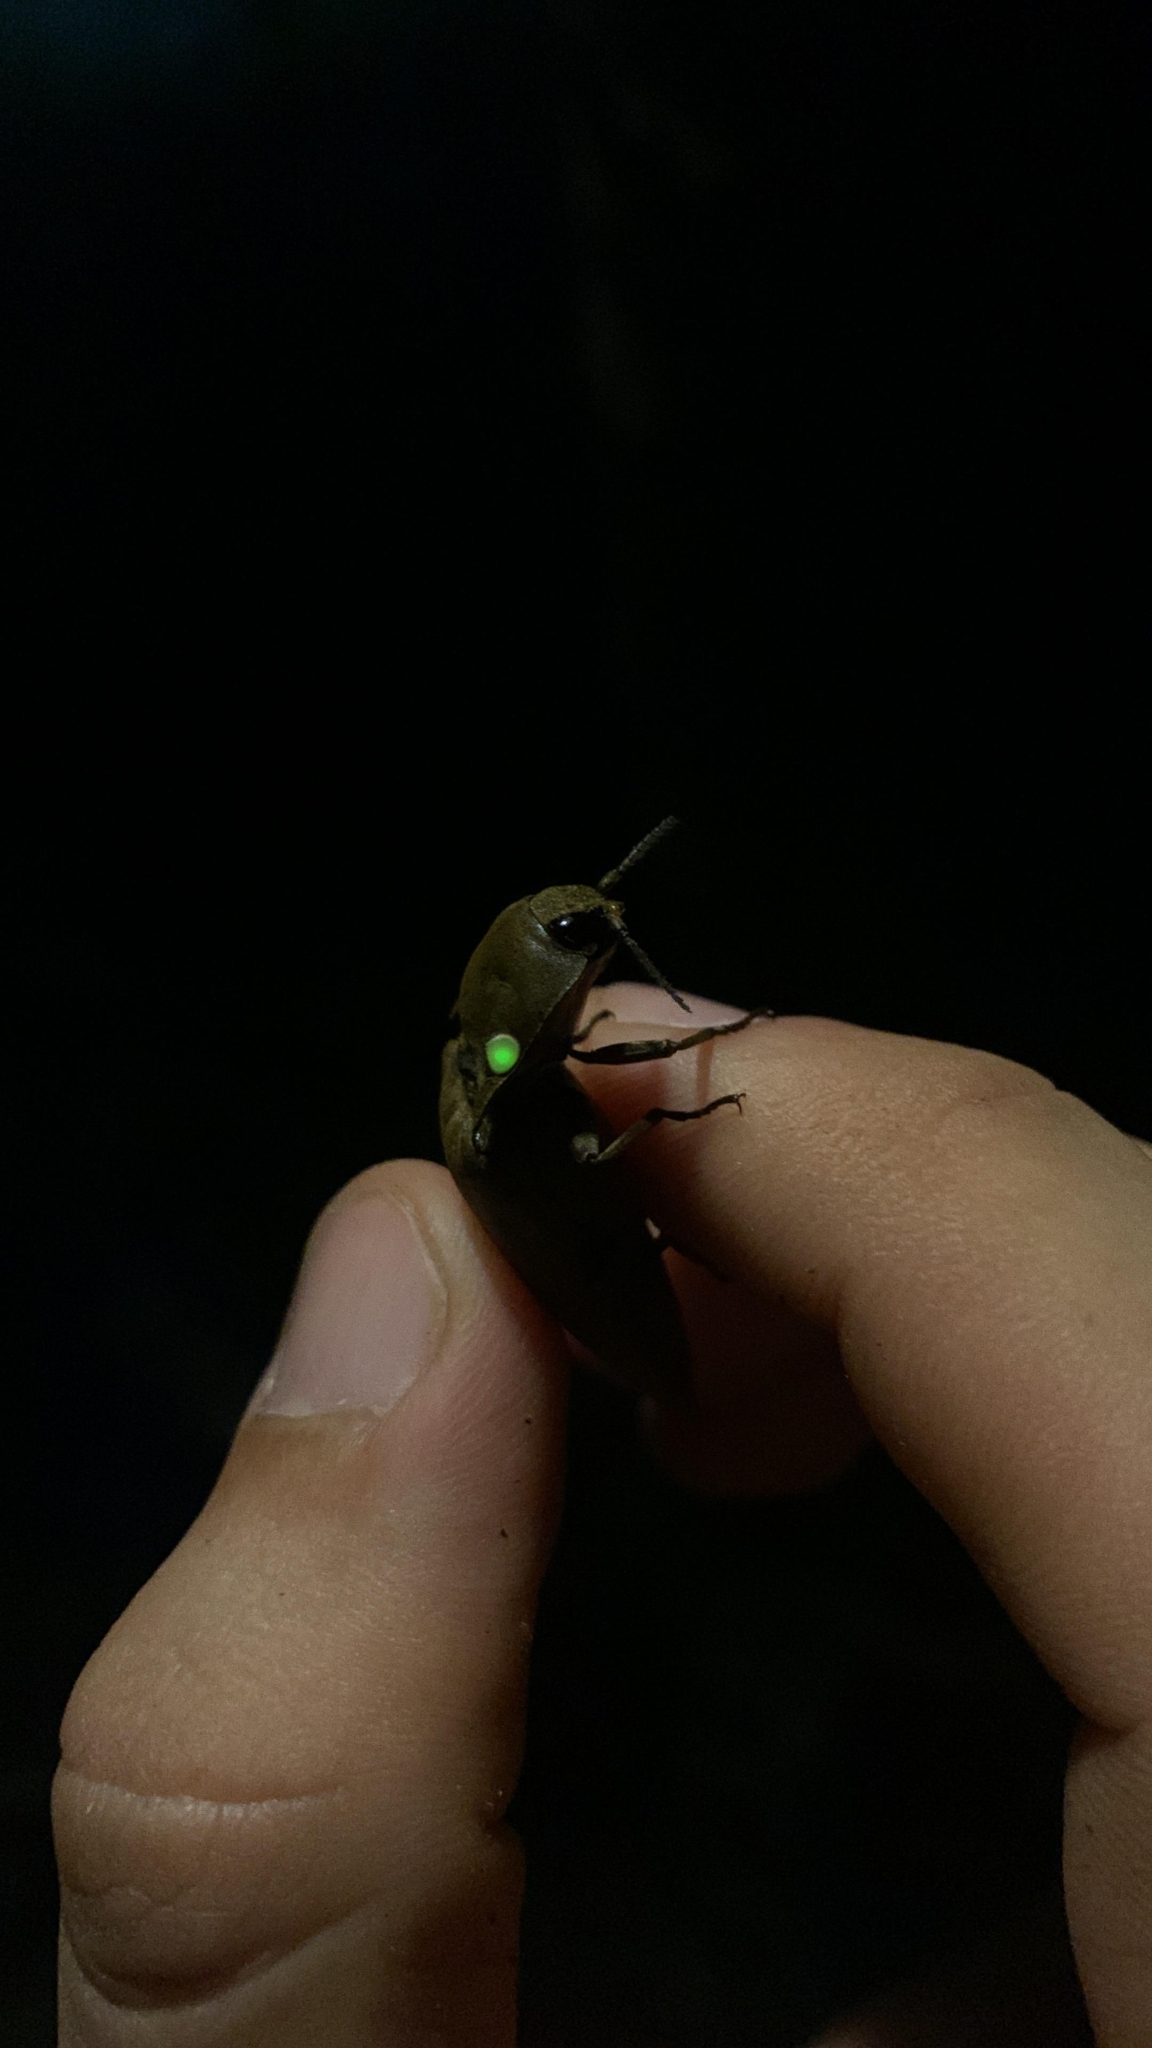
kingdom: Animalia
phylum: Arthropoda
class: Insecta
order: Coleoptera
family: Elateridae
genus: Pyrophorus
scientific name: Pyrophorus noctilucus
